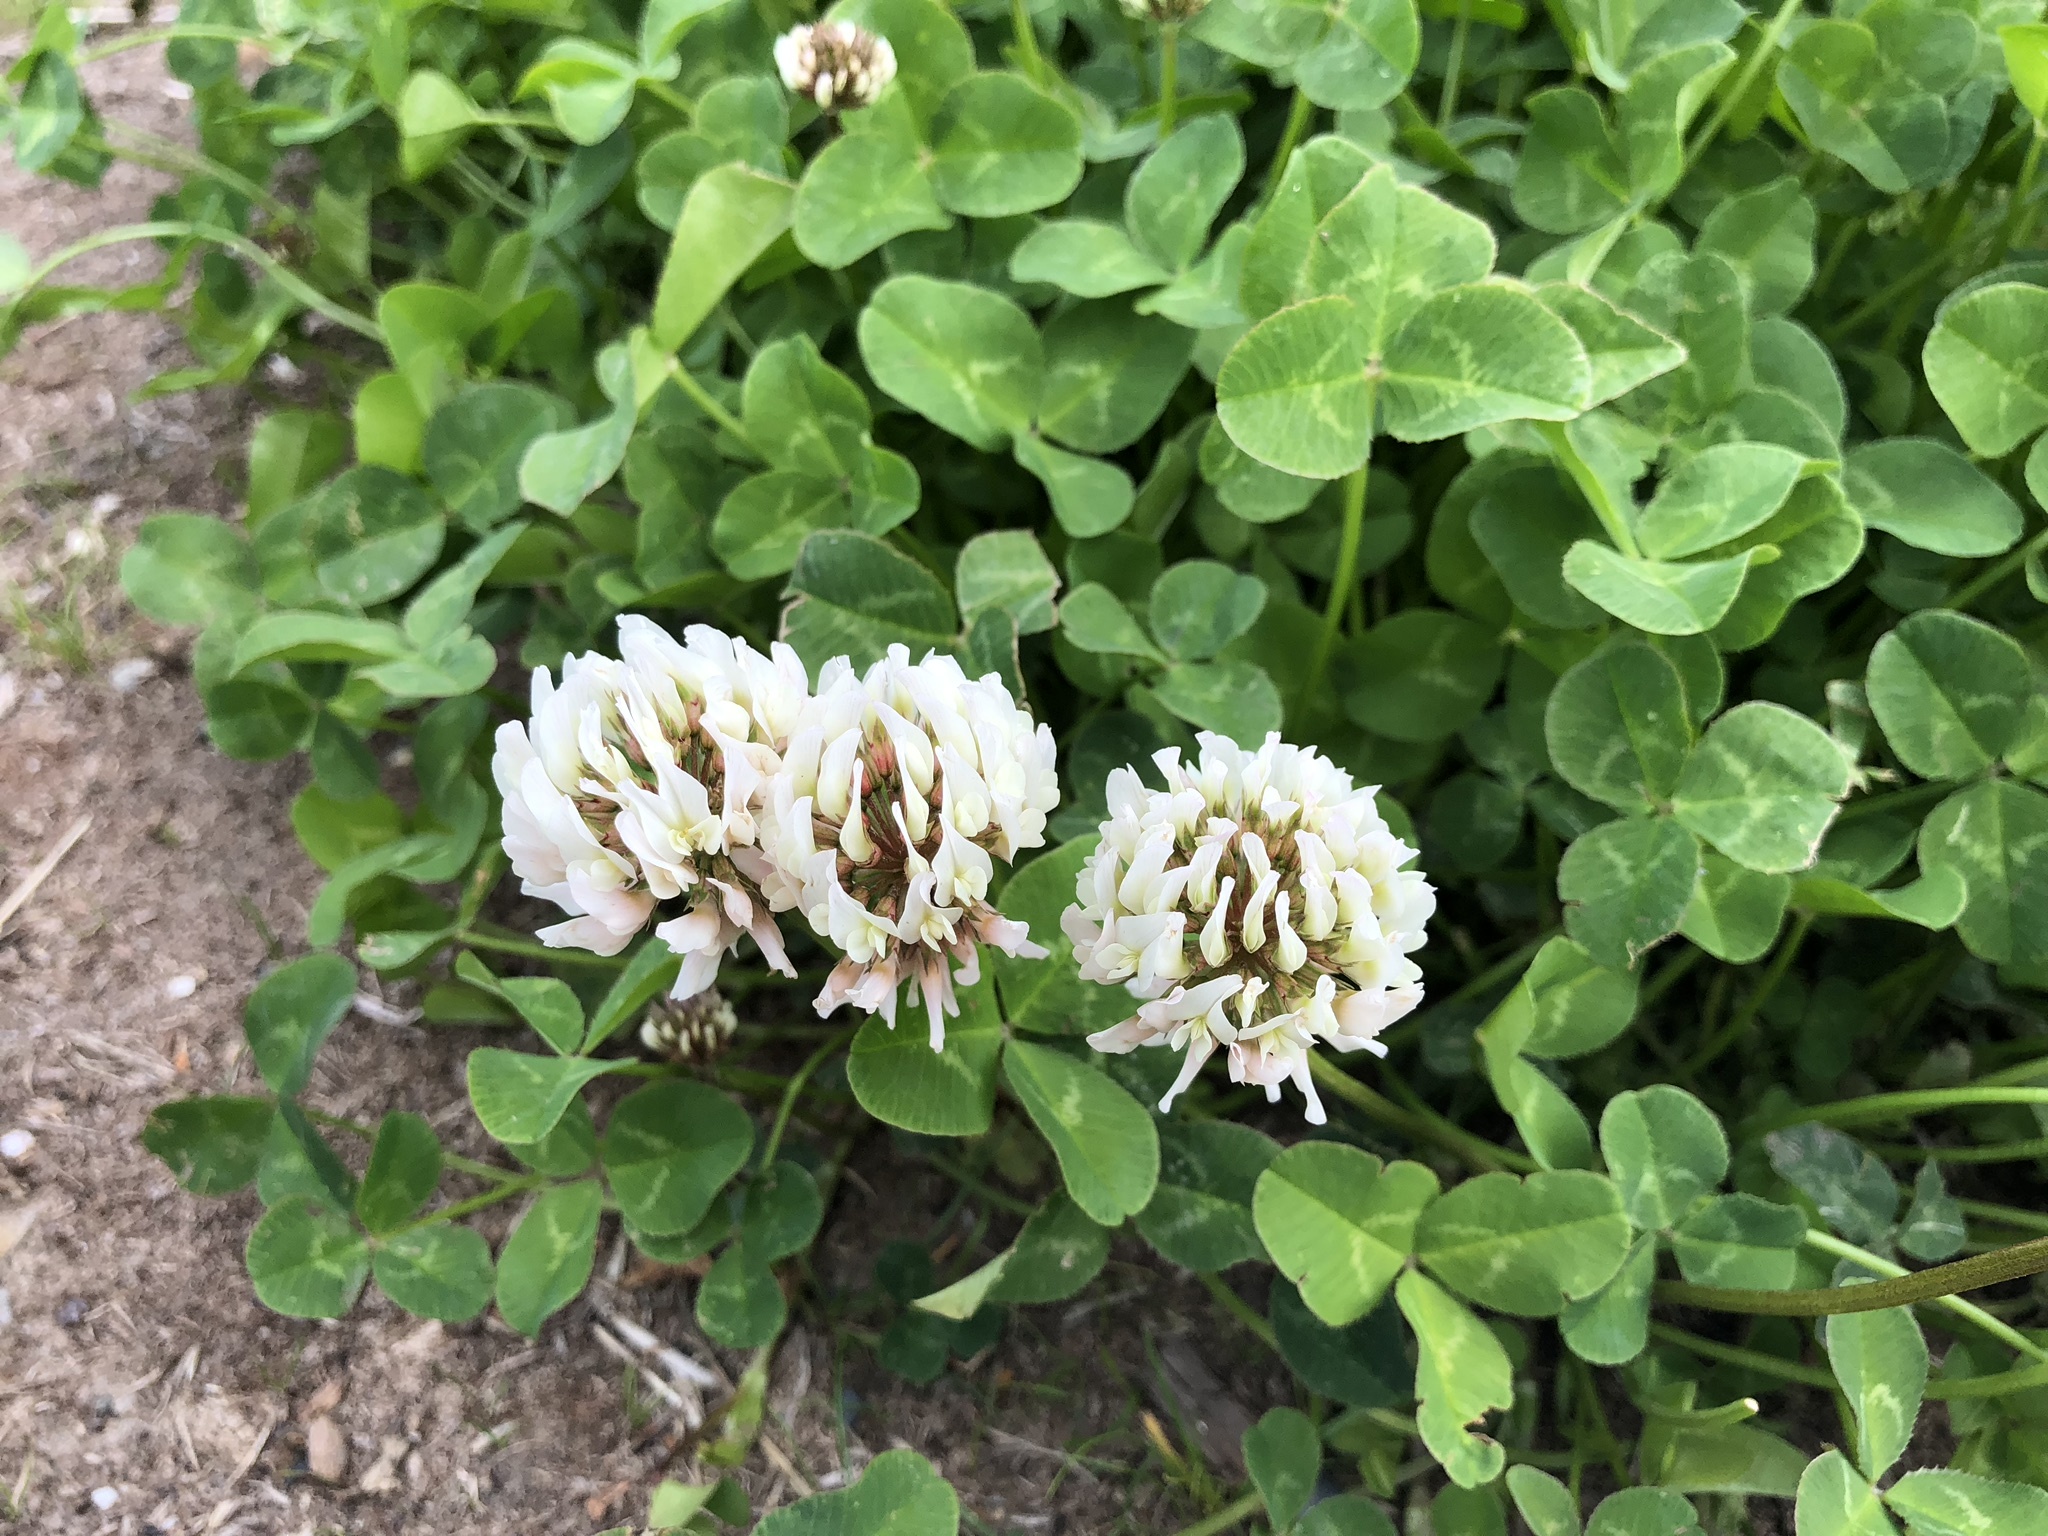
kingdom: Plantae
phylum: Tracheophyta
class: Magnoliopsida
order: Fabales
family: Fabaceae
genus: Trifolium
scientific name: Trifolium repens
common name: White clover
